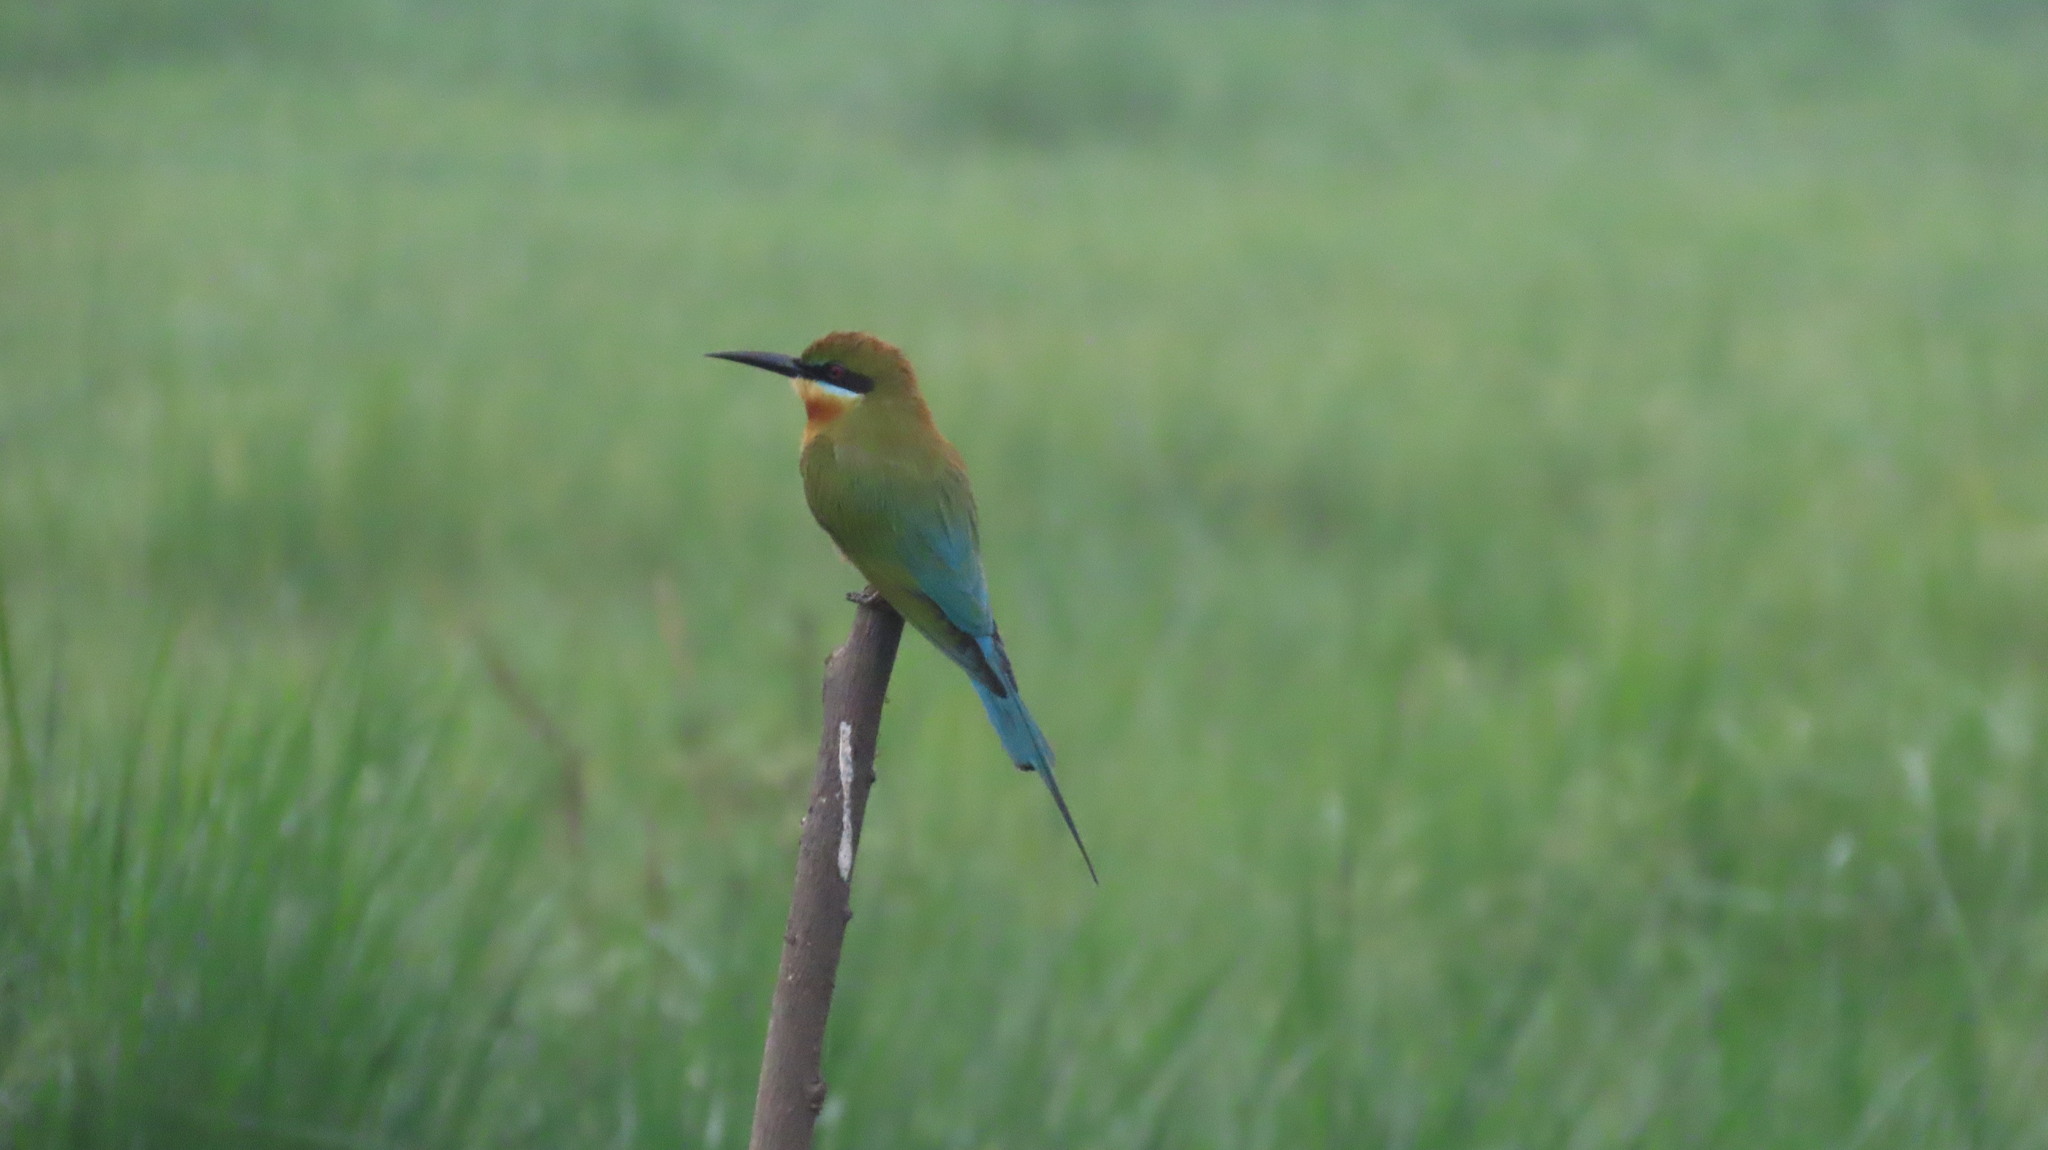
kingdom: Animalia
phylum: Chordata
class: Aves
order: Coraciiformes
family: Meropidae
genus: Merops
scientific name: Merops philippinus
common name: Blue-tailed bee-eater
